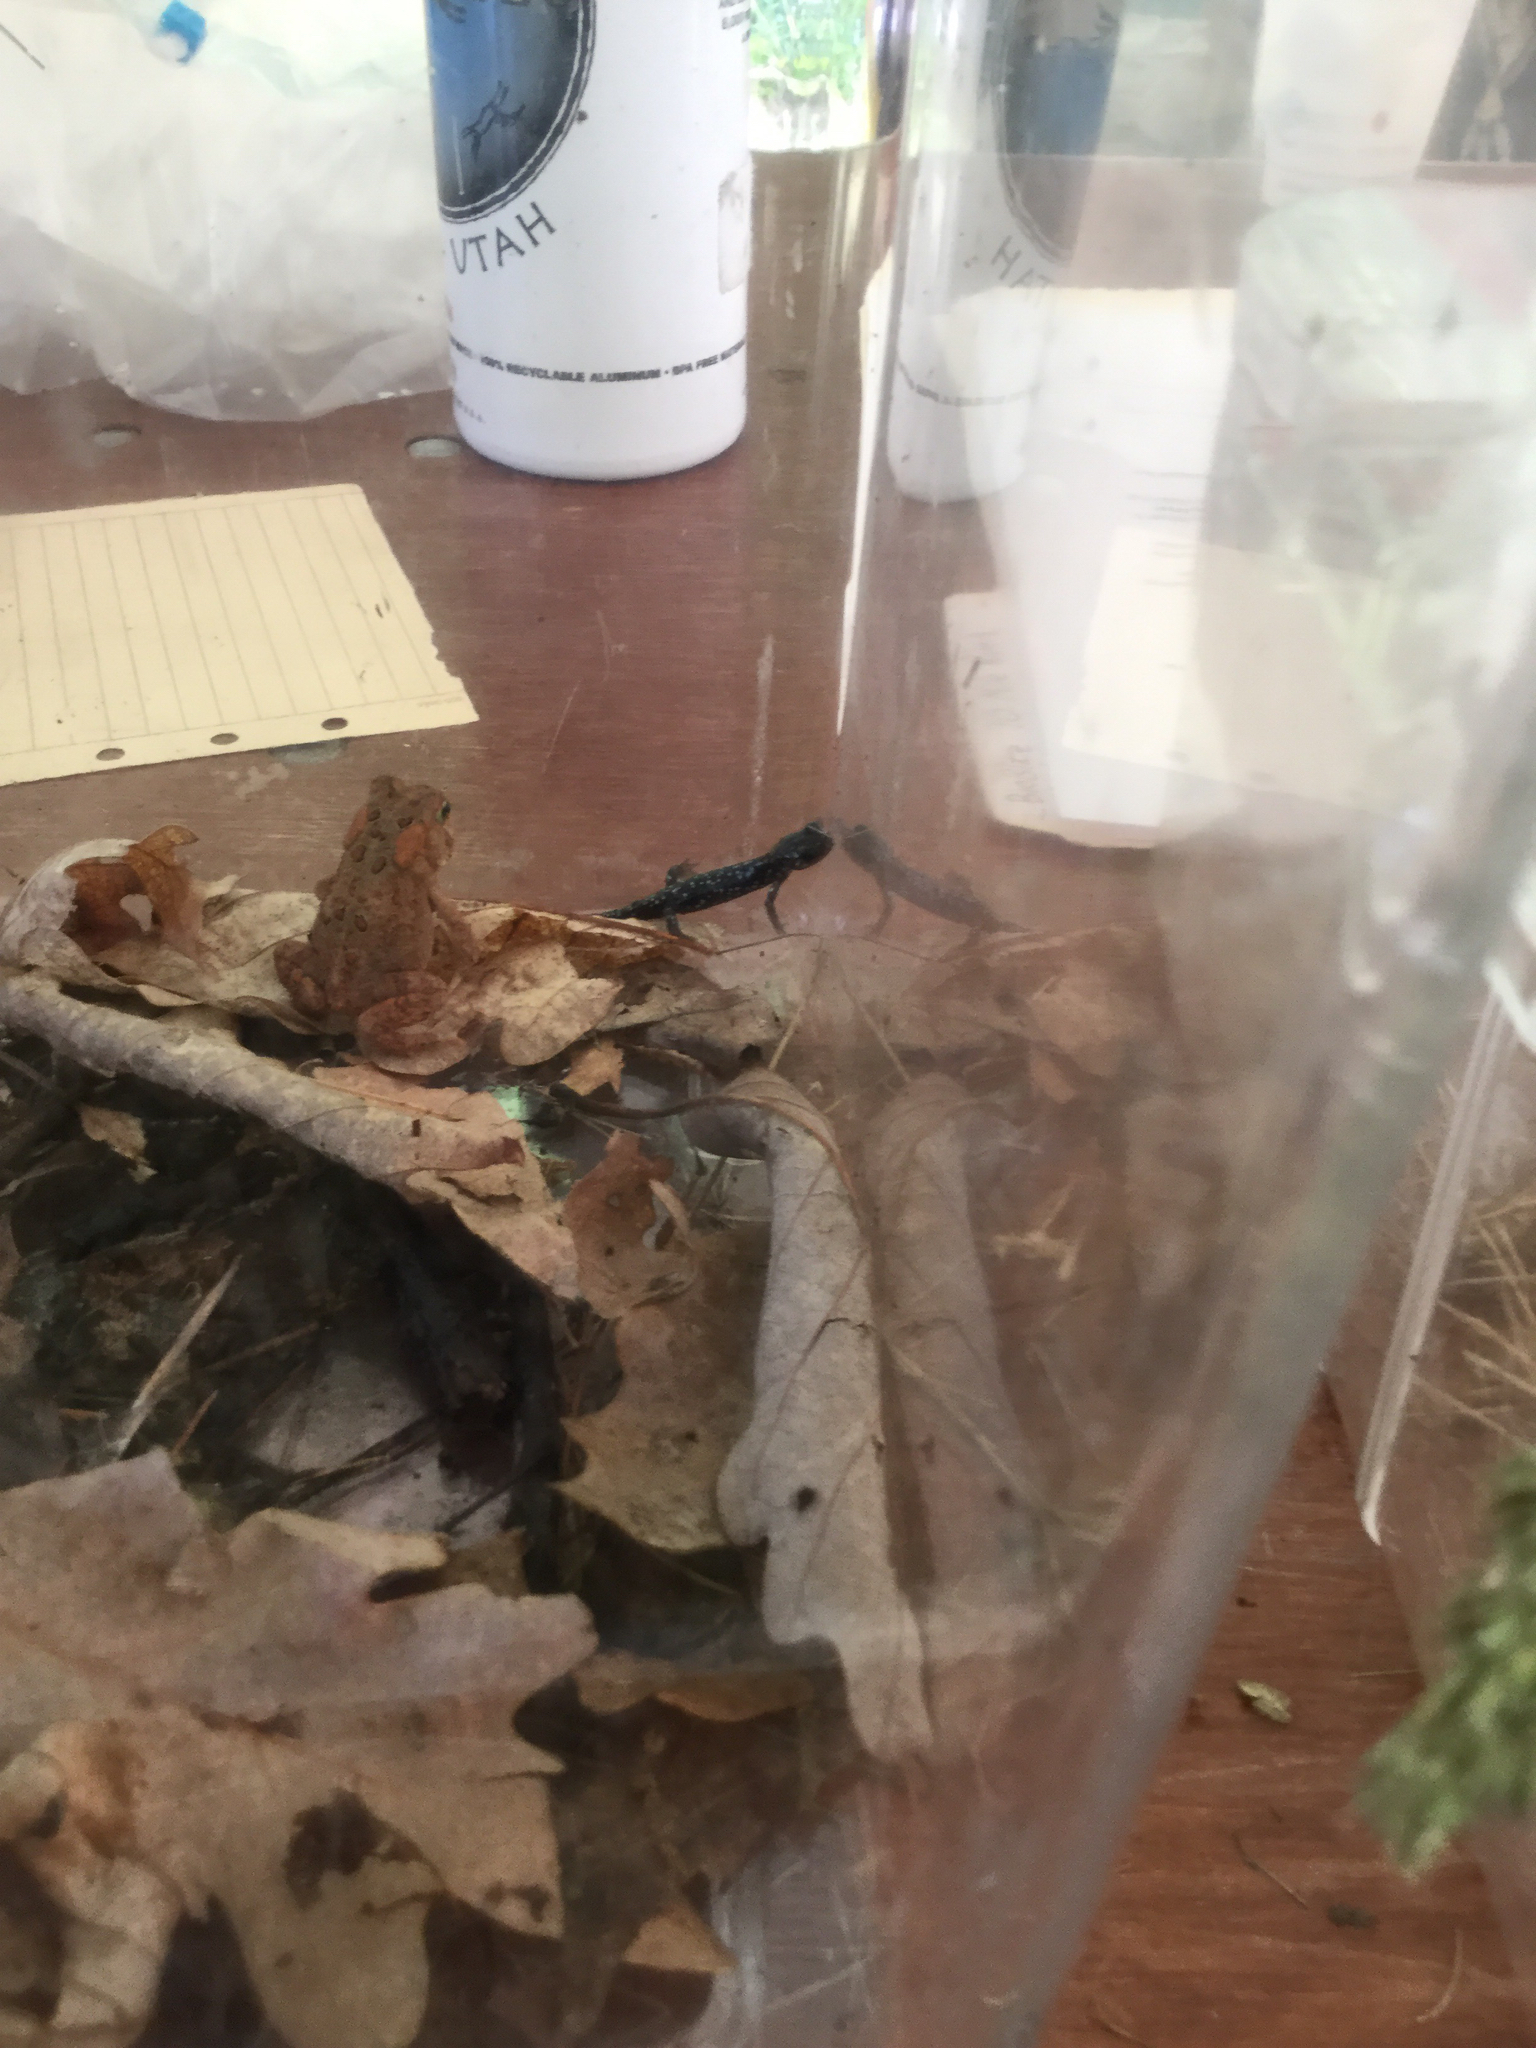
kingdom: Animalia
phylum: Chordata
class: Amphibia
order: Caudata
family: Plethodontidae
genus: Plethodon
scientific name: Plethodon glutinosus
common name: Northern slimy salamander
